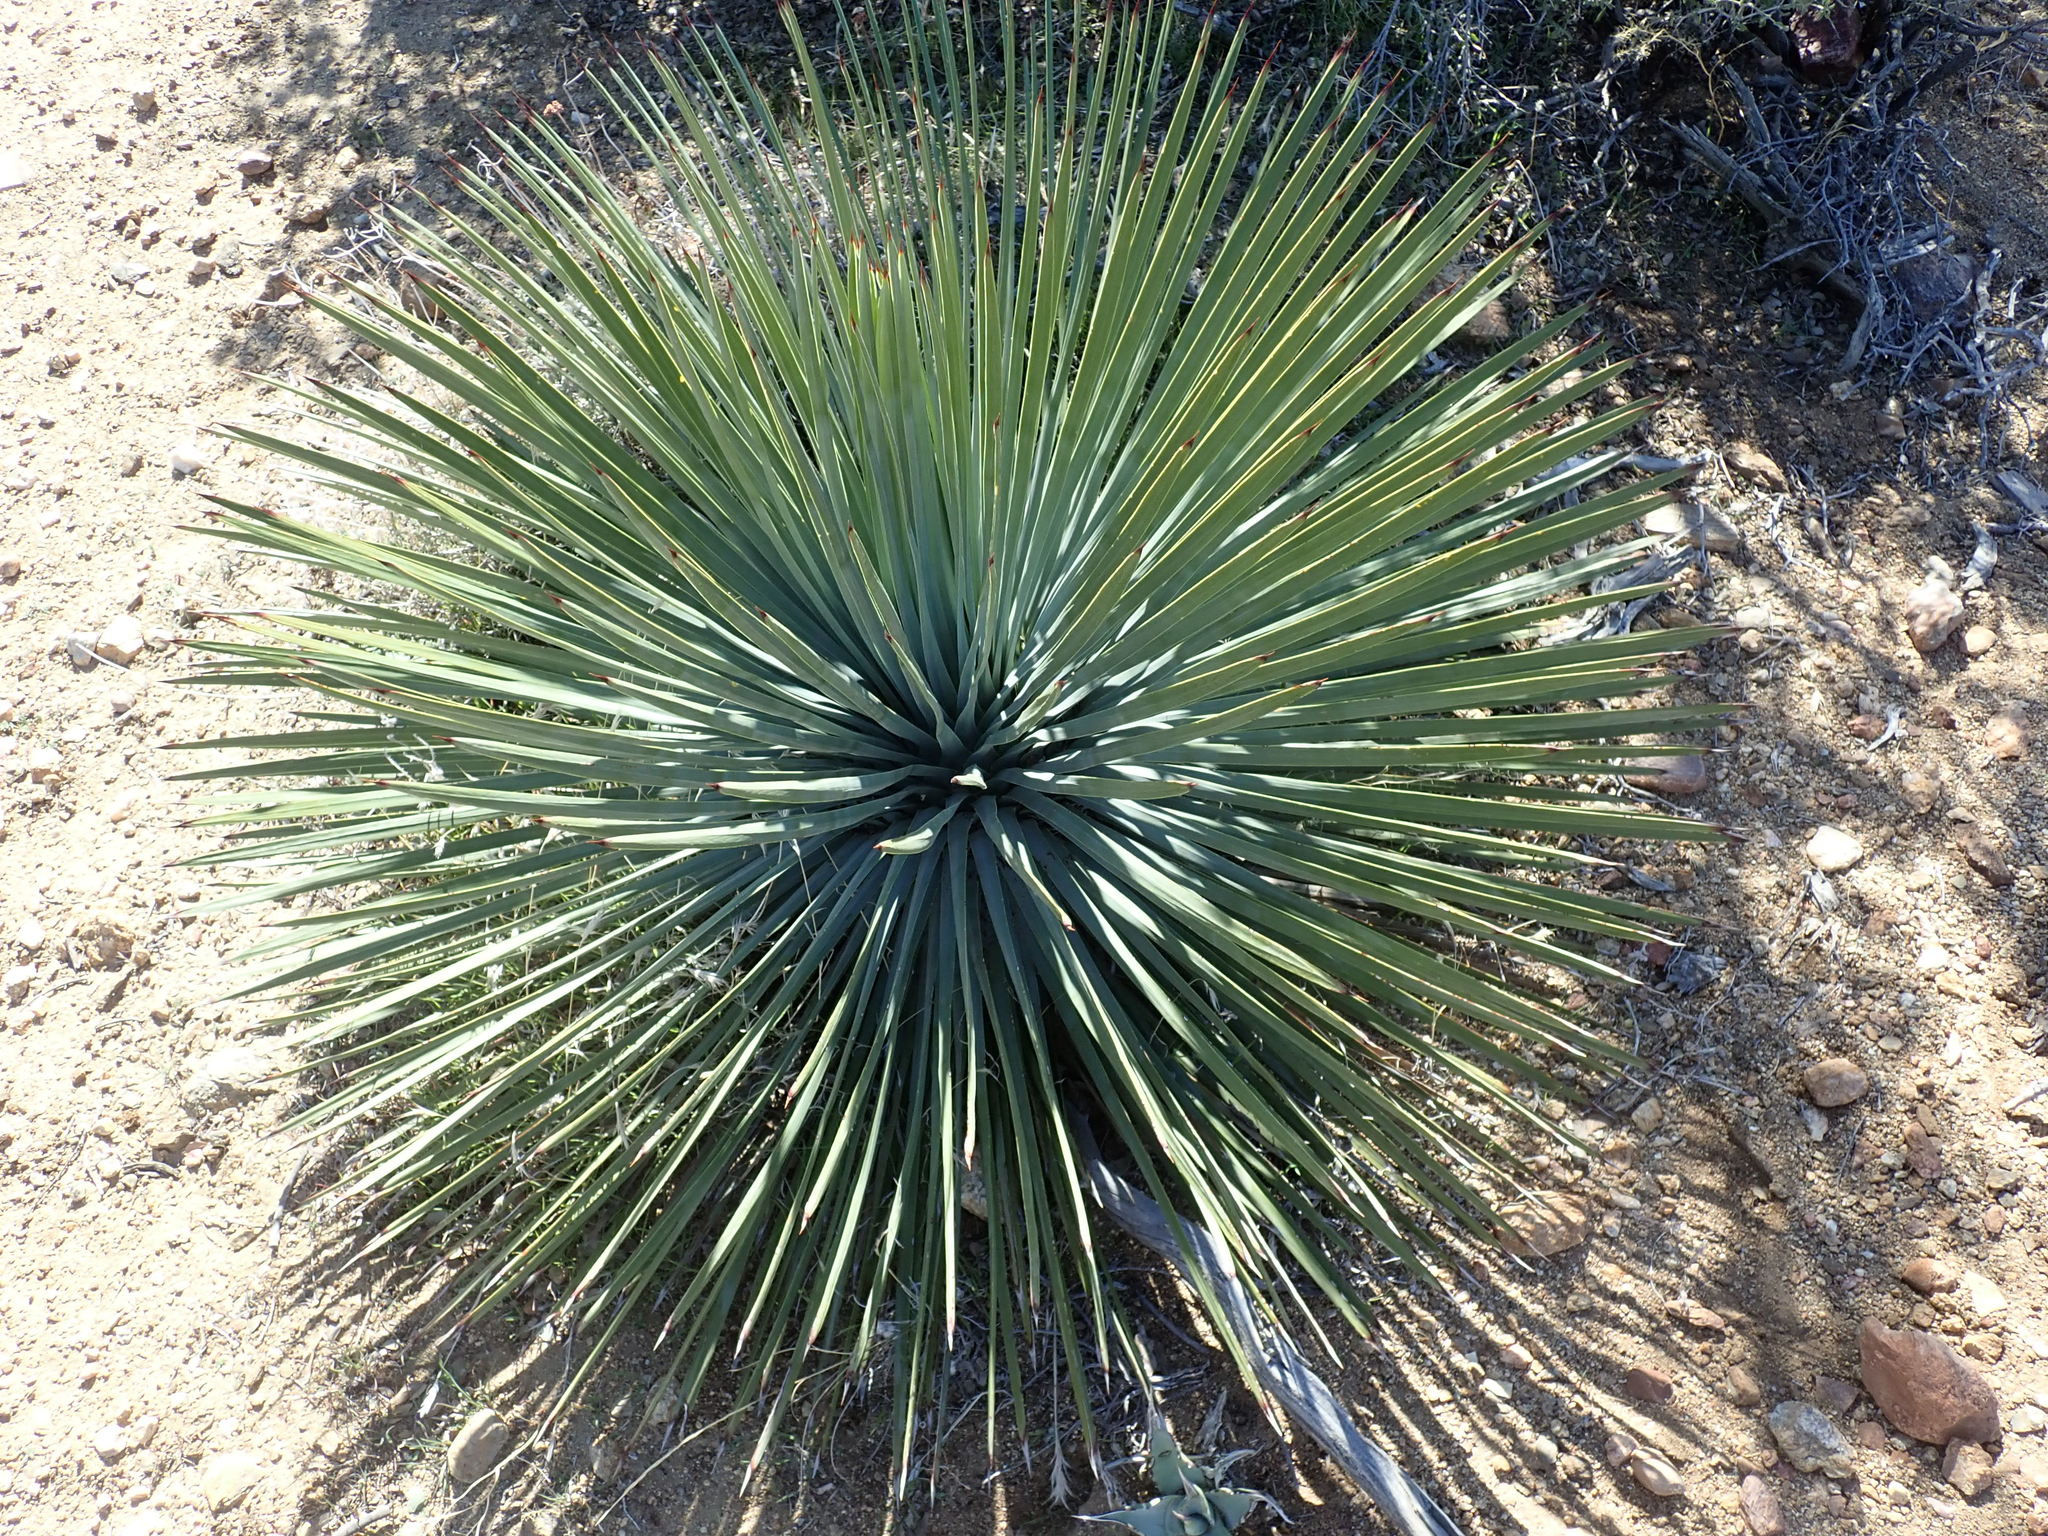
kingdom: Plantae
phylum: Tracheophyta
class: Liliopsida
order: Asparagales
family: Asparagaceae
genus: Hesperoyucca
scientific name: Hesperoyucca whipplei
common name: Our lord's-candle
